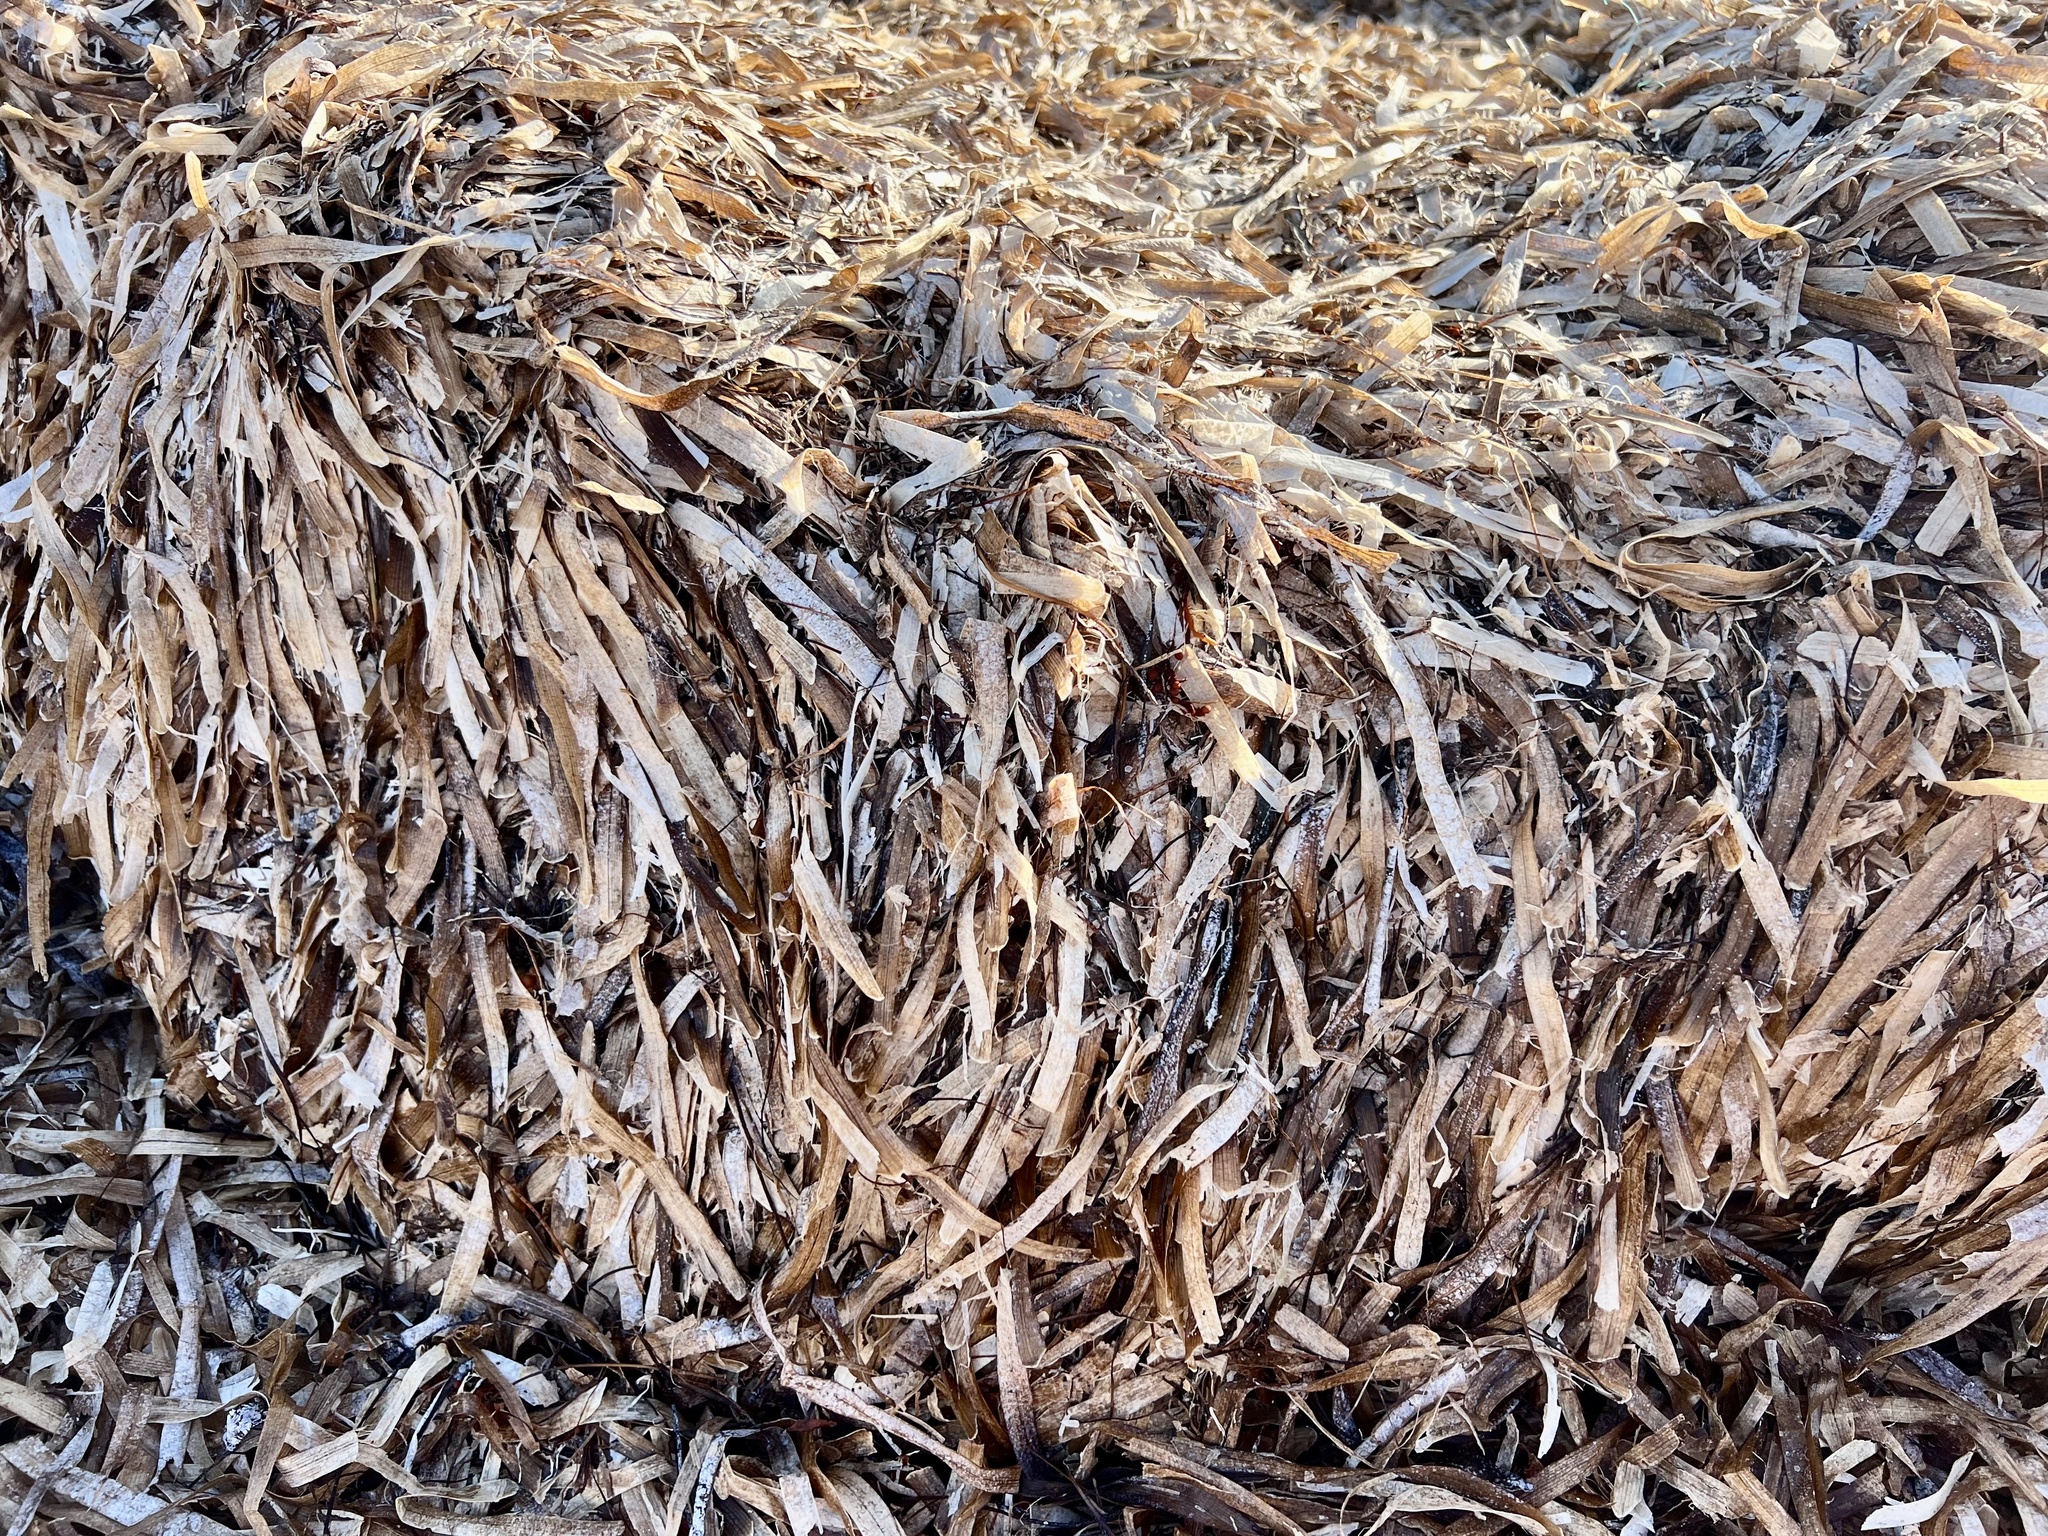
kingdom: Plantae
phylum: Tracheophyta
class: Liliopsida
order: Alismatales
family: Hydrocharitaceae
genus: Thalassia
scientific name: Thalassia testudinum
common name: Species code: tt
